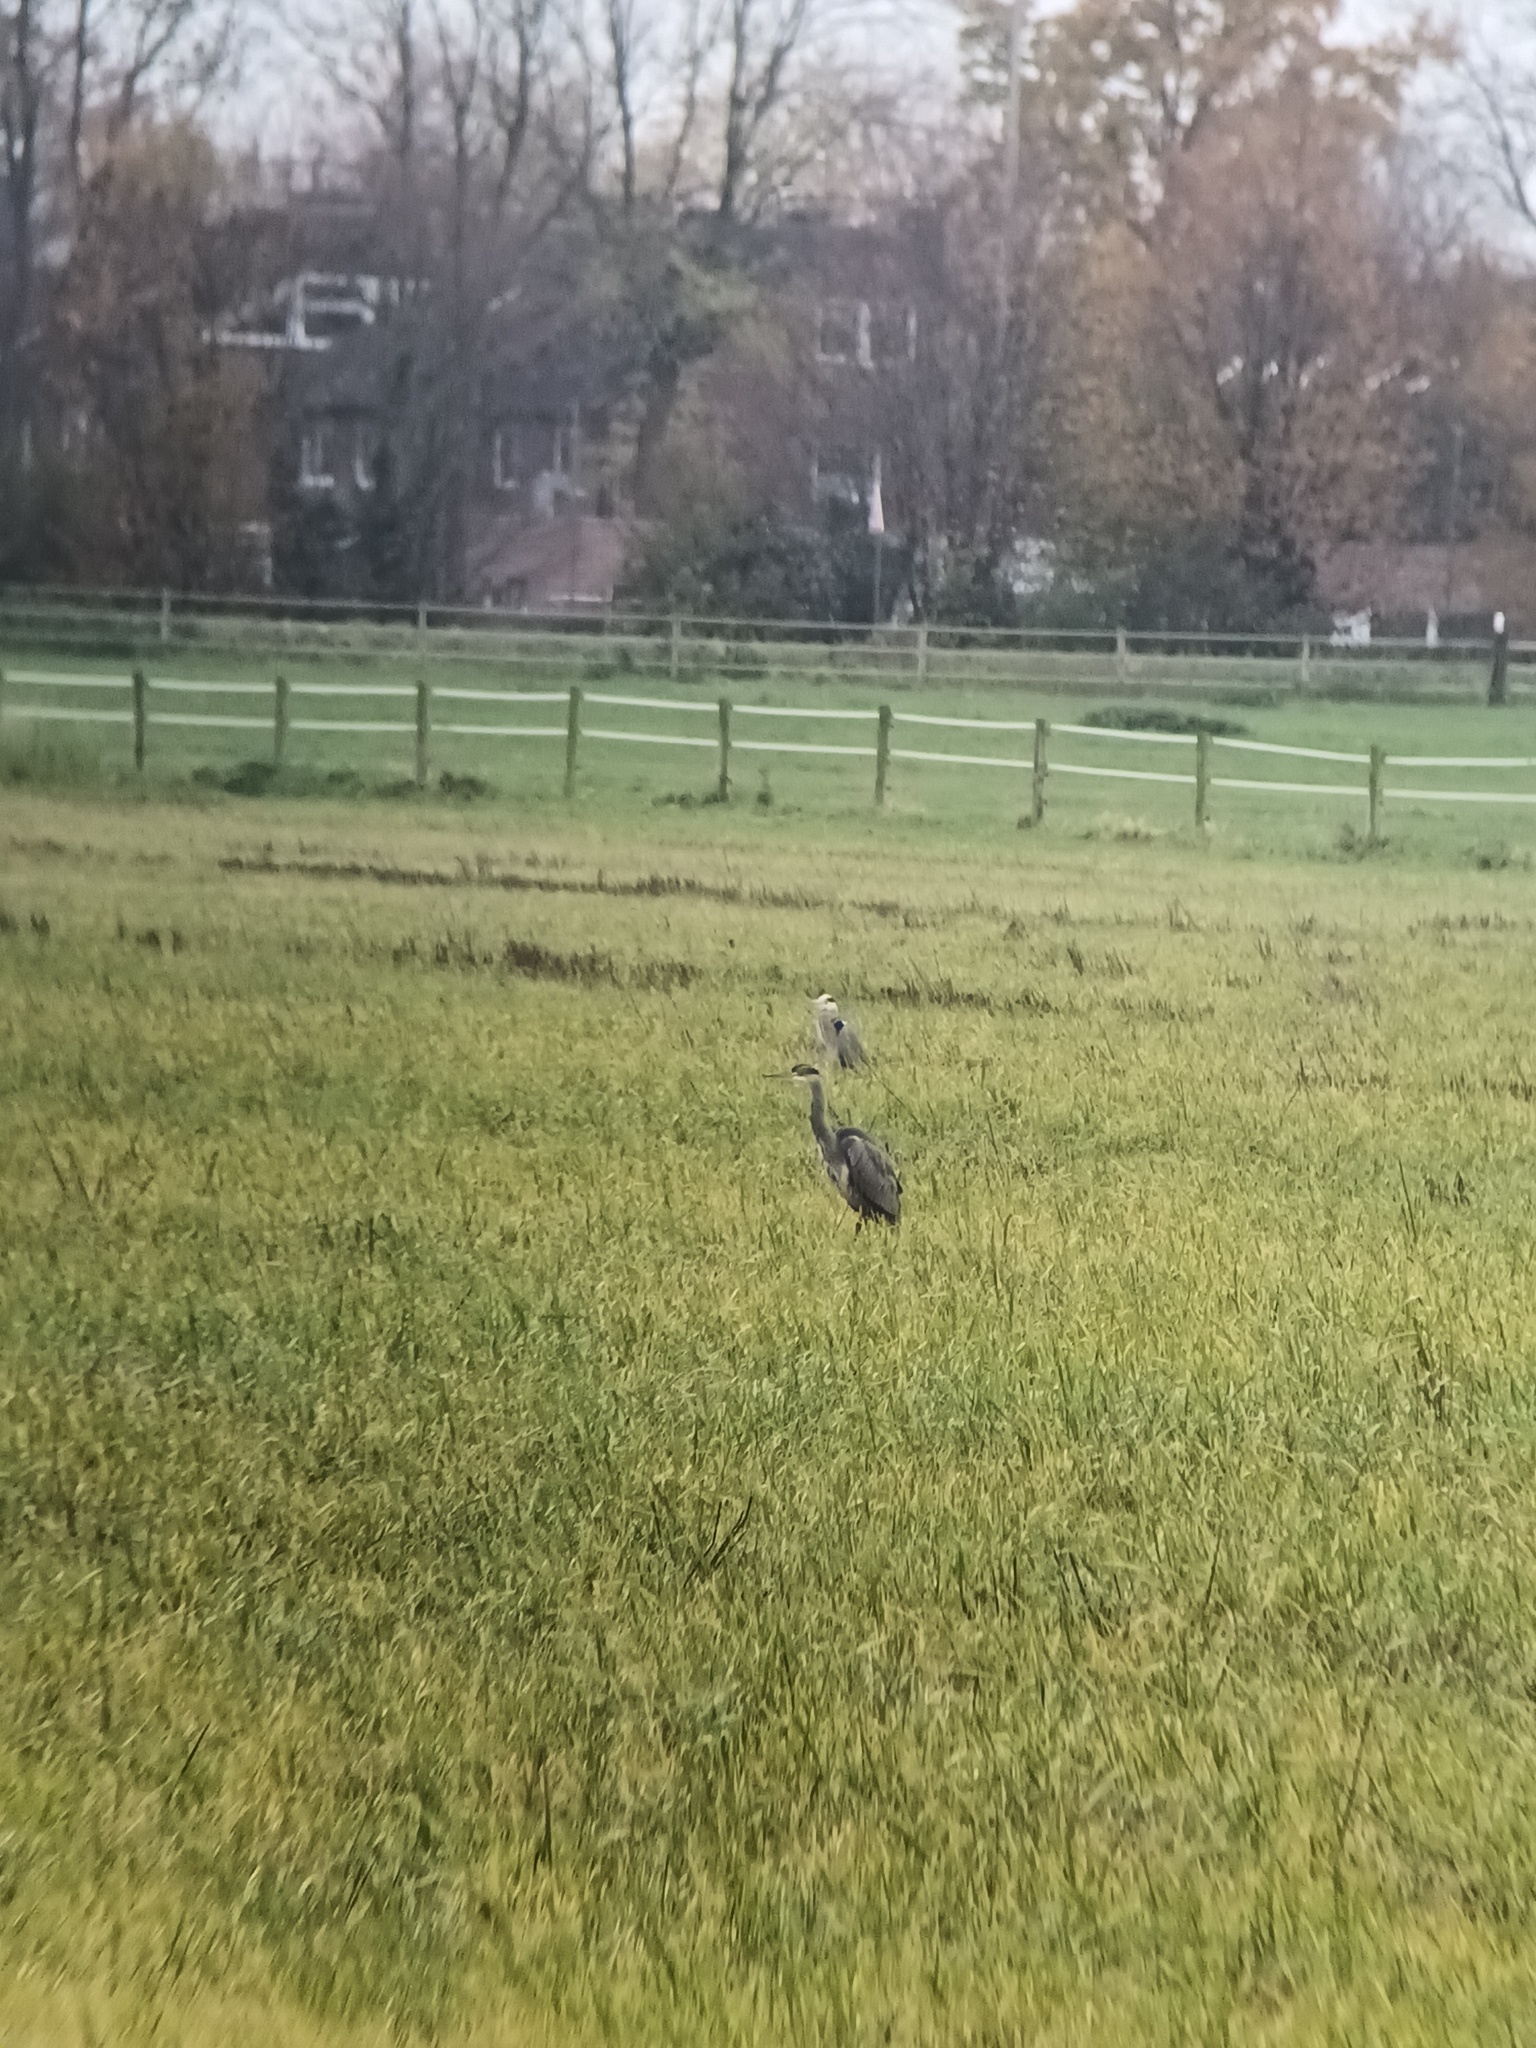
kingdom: Animalia
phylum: Chordata
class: Aves
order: Pelecaniformes
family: Ardeidae
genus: Ardea
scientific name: Ardea cinerea
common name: Grey heron
